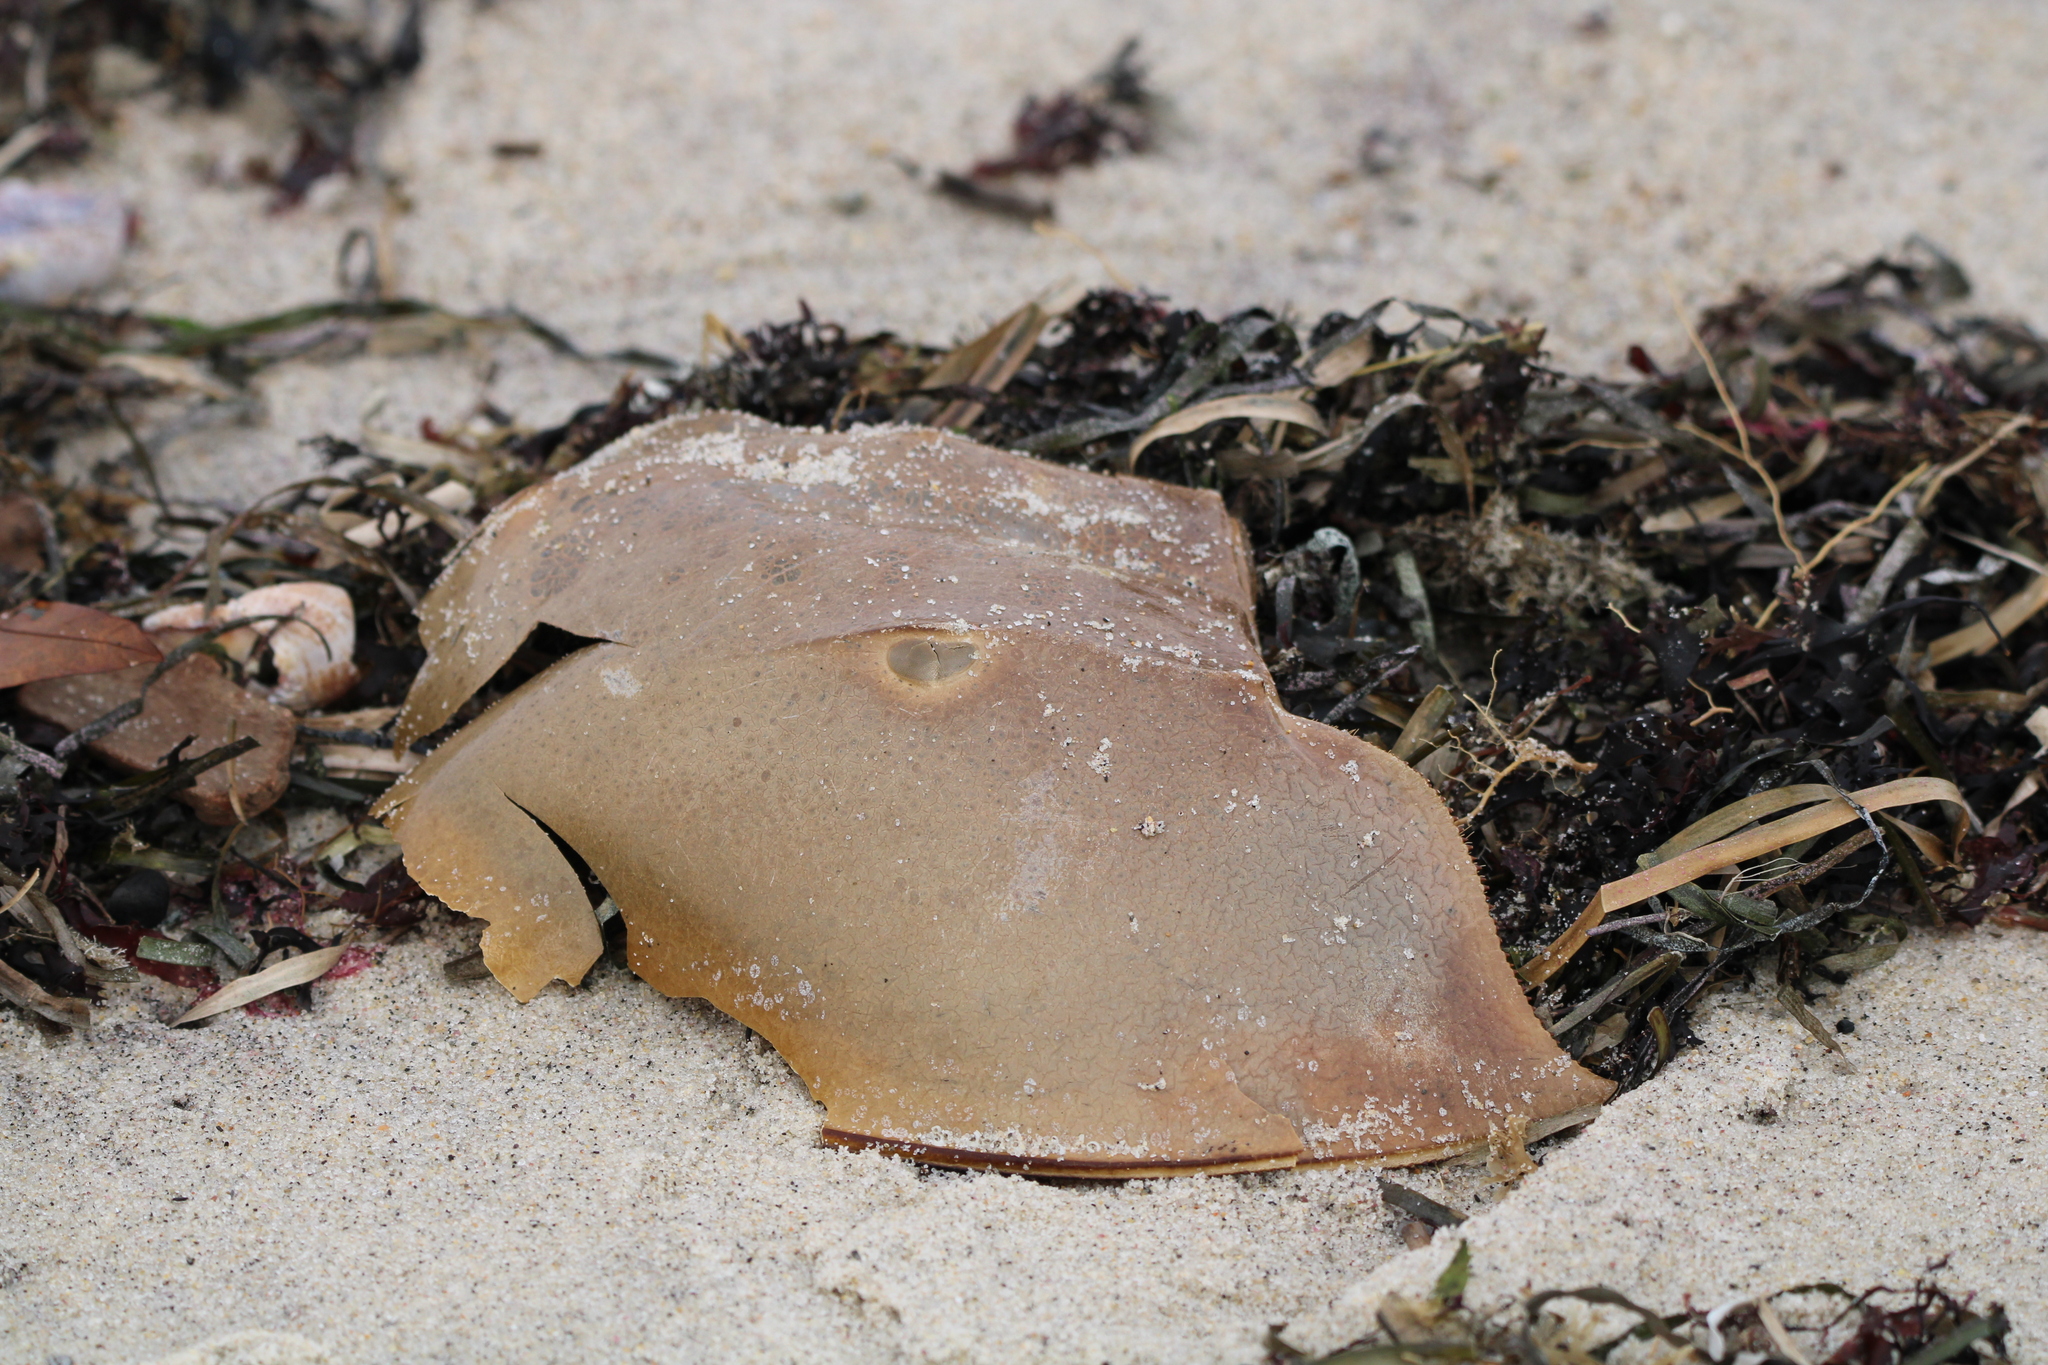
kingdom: Animalia
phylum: Arthropoda
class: Merostomata
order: Xiphosurida
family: Limulidae
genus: Limulus
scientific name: Limulus polyphemus
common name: Horseshoe crab
